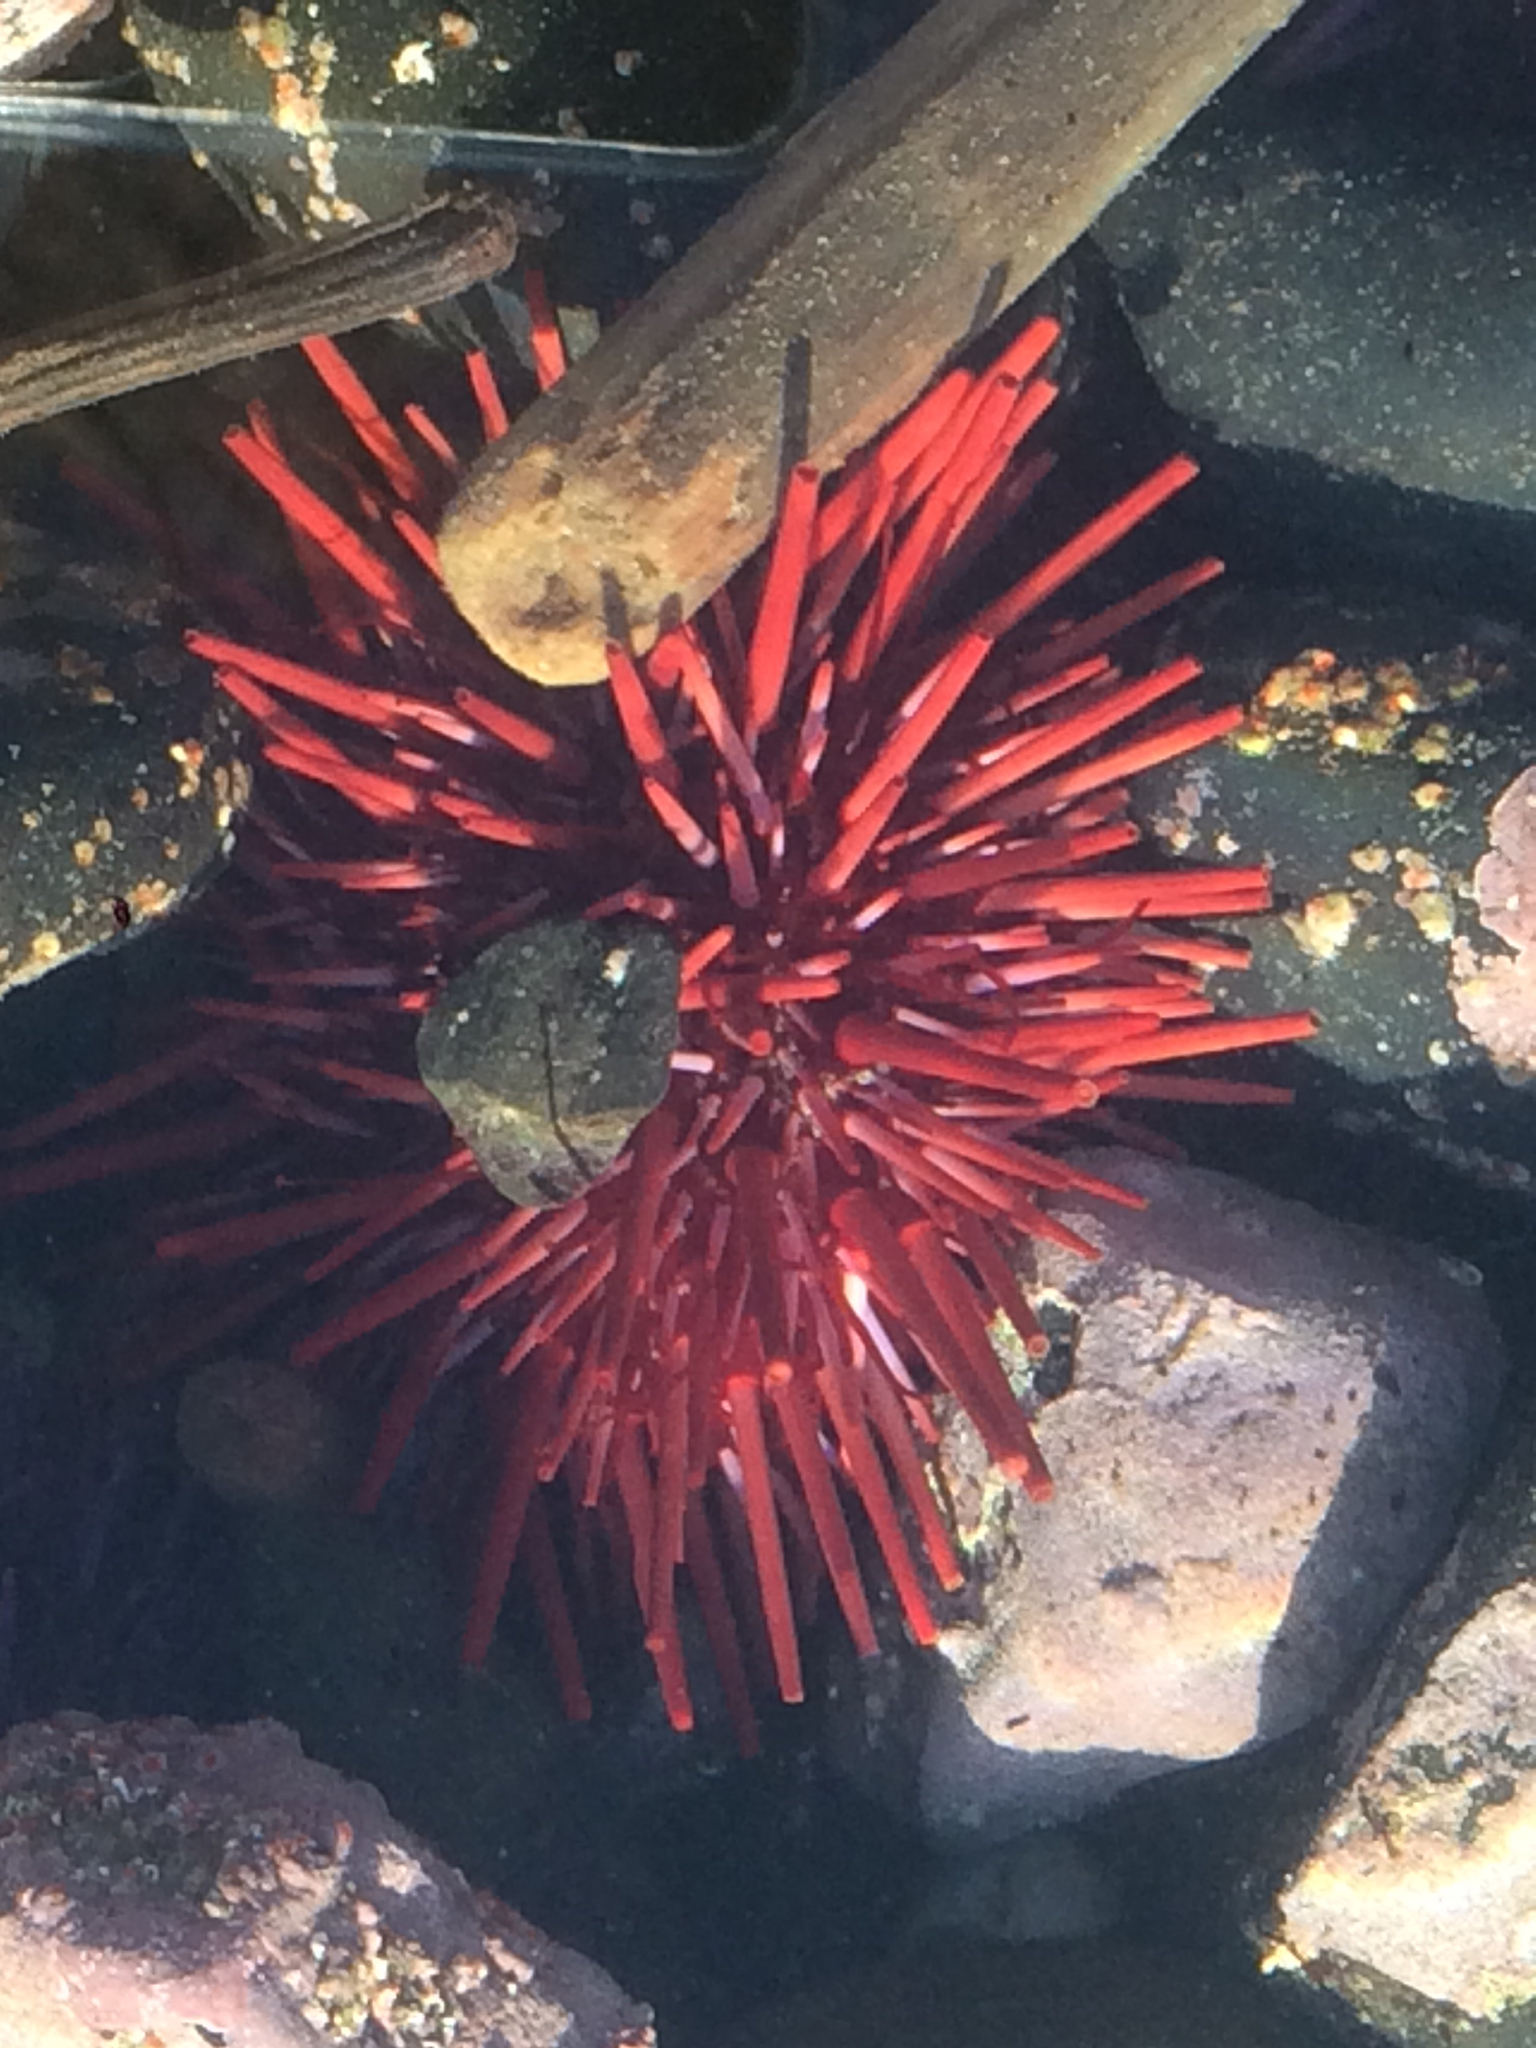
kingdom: Animalia
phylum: Echinodermata
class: Echinoidea
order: Camarodonta
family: Strongylocentrotidae
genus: Mesocentrotus
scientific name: Mesocentrotus franciscanus
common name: Red sea urchin
